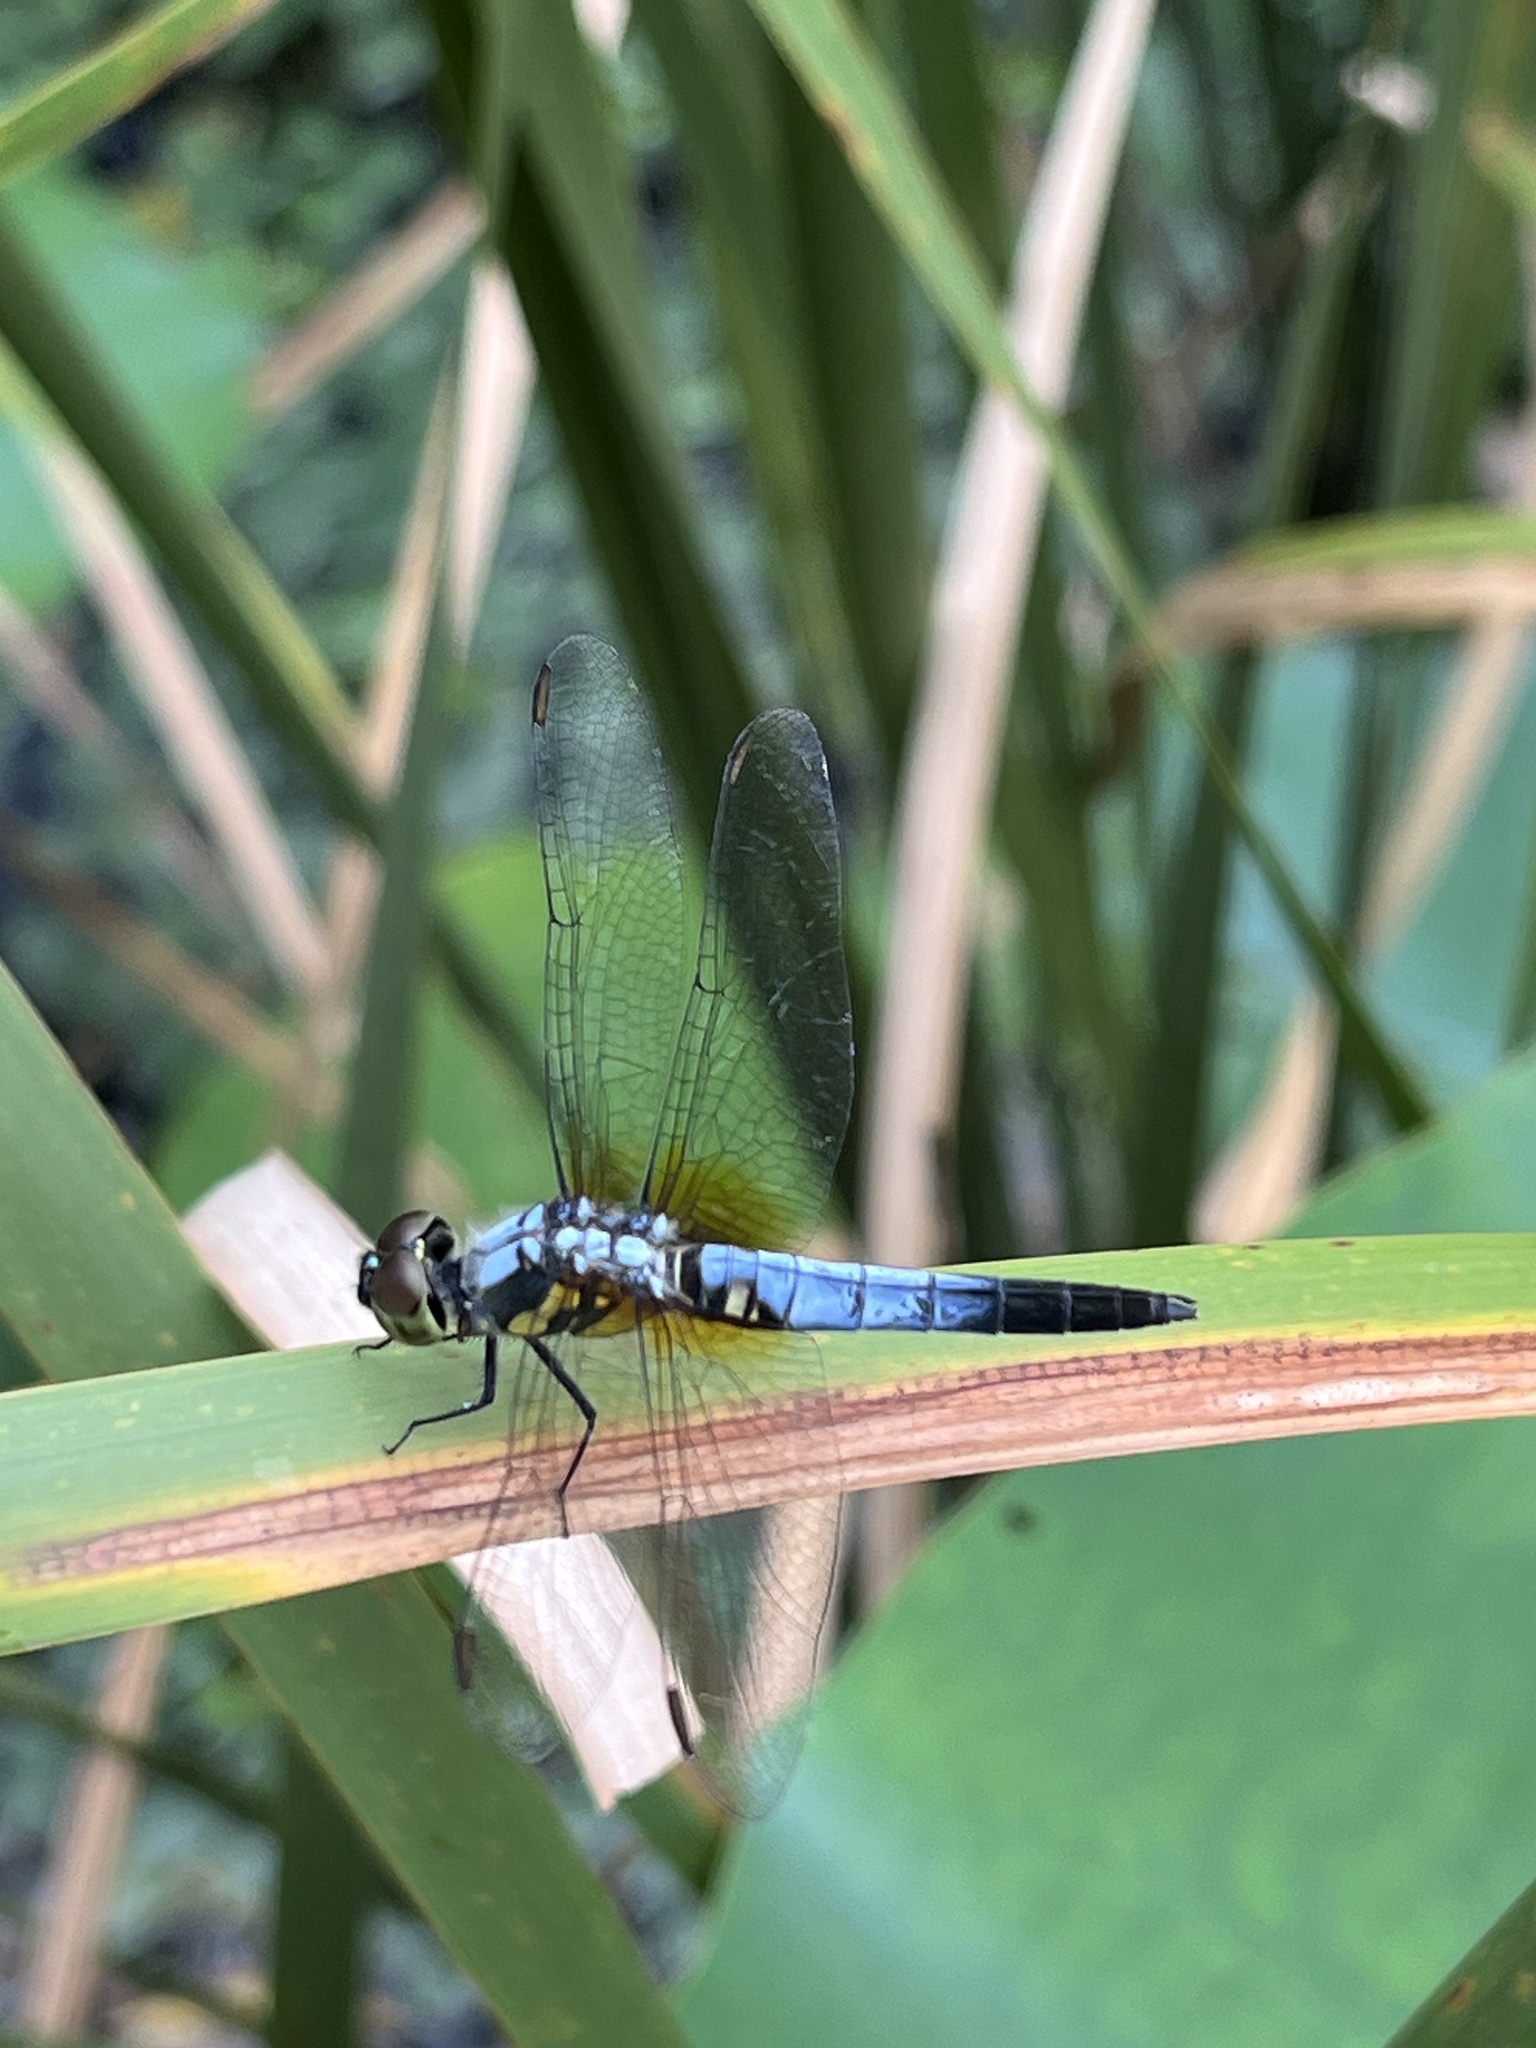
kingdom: Animalia
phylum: Arthropoda
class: Insecta
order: Odonata
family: Libellulidae
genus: Brachydiplax
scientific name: Brachydiplax chalybea
